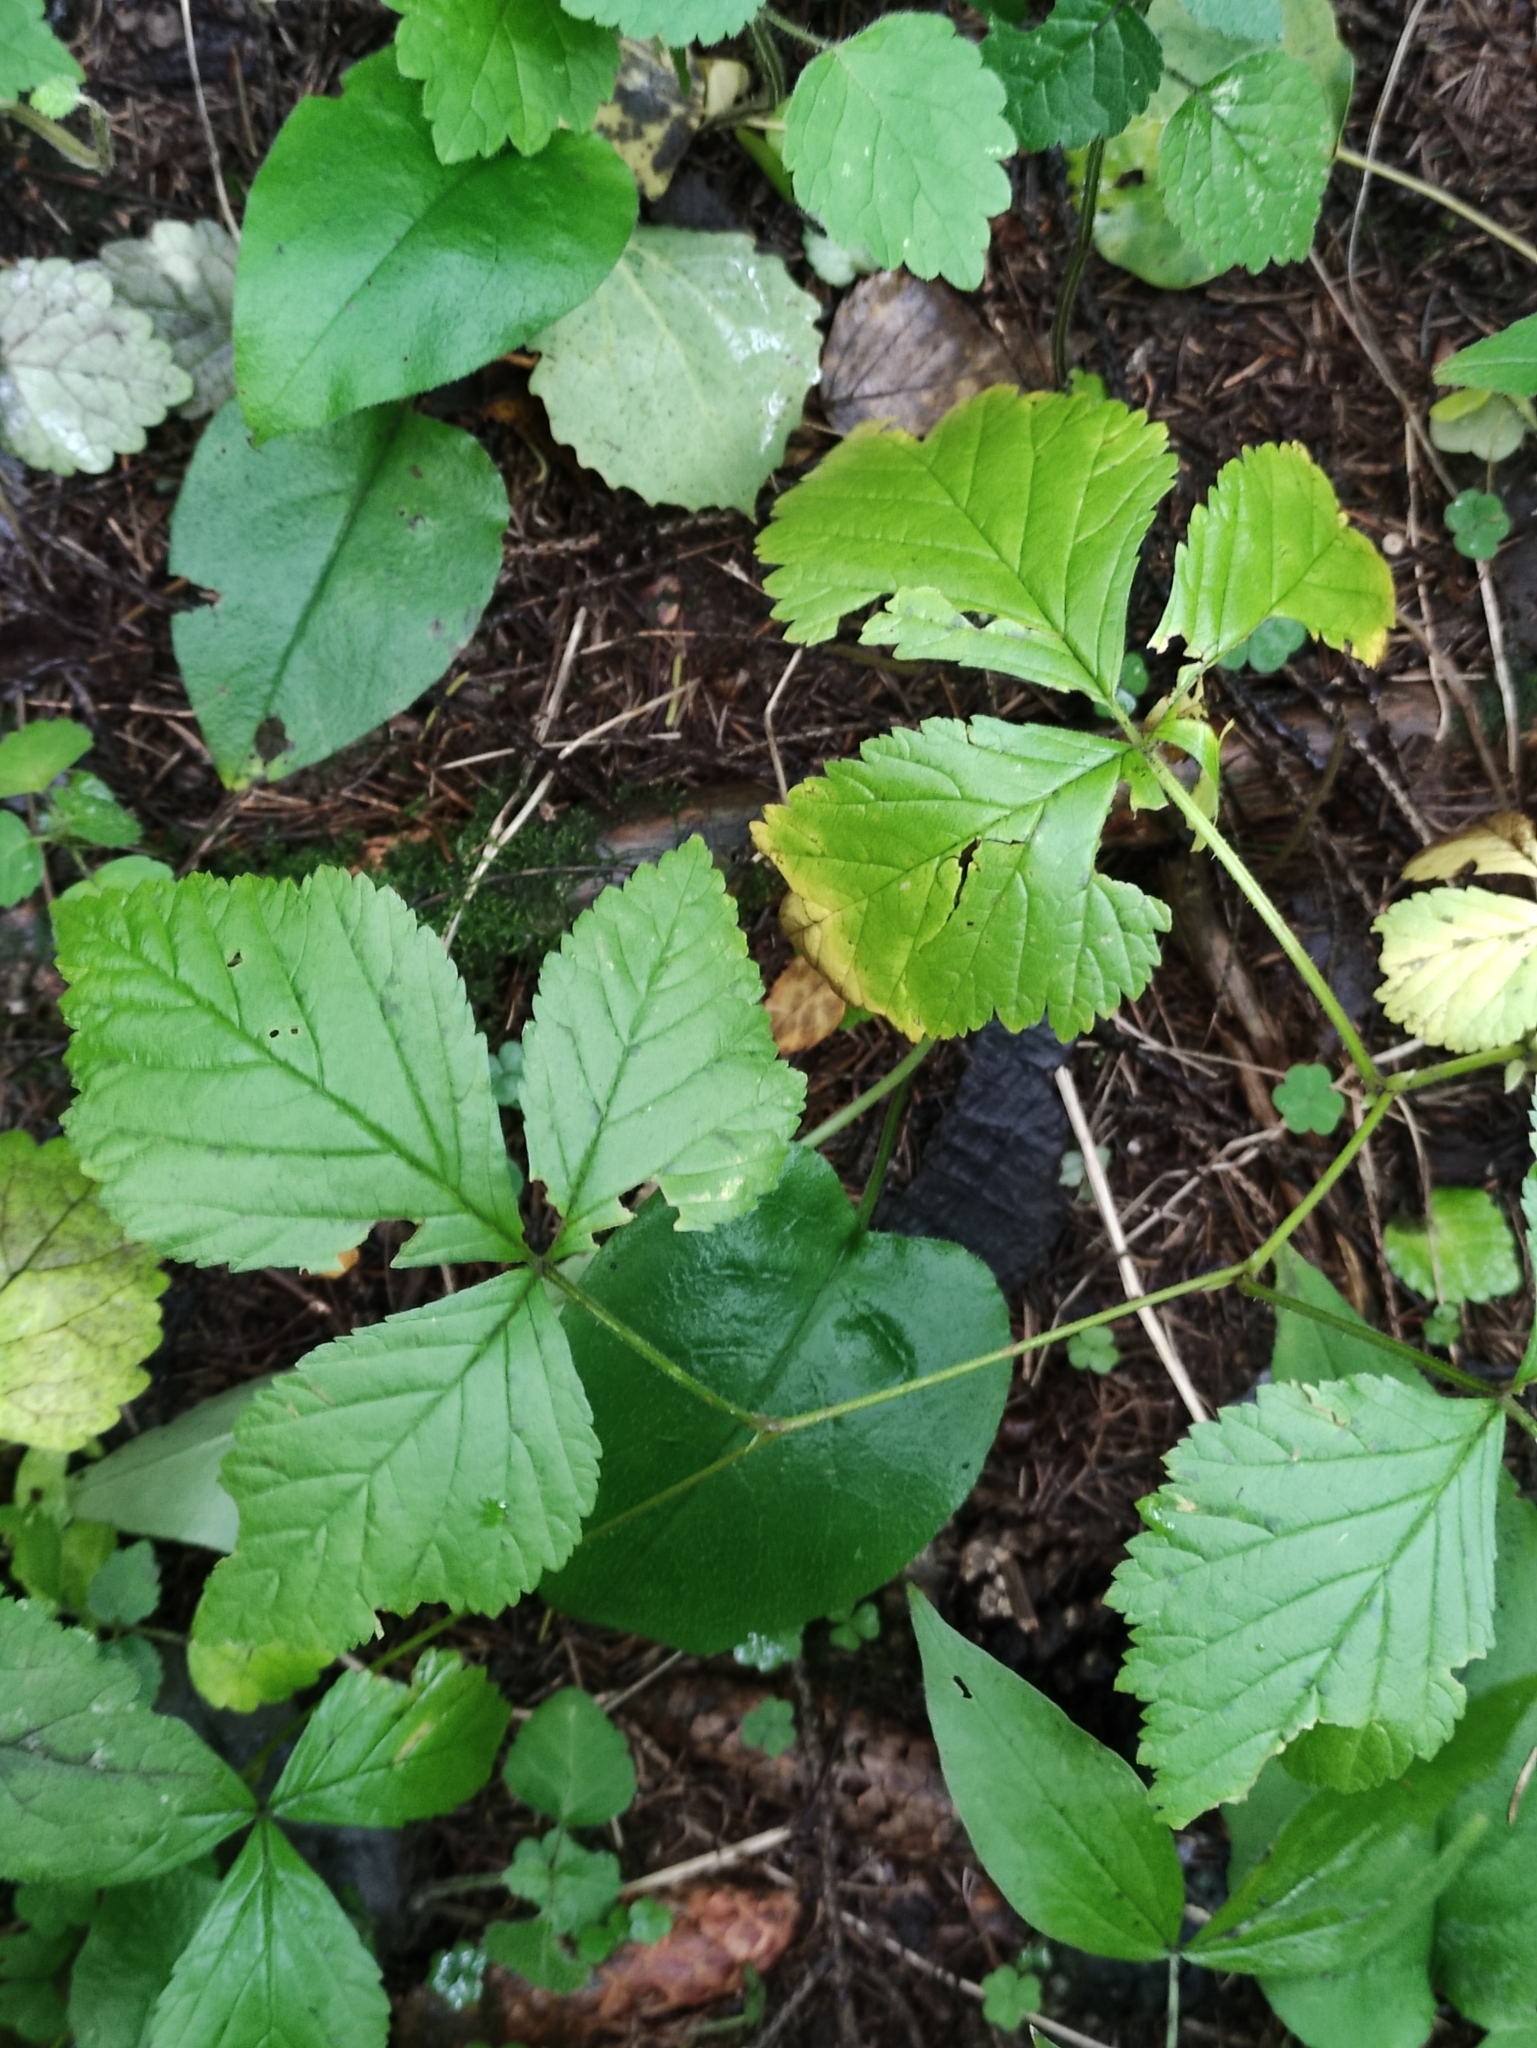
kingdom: Plantae
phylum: Tracheophyta
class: Magnoliopsida
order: Rosales
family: Rosaceae
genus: Rubus
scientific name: Rubus saxatilis
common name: Stone bramble
